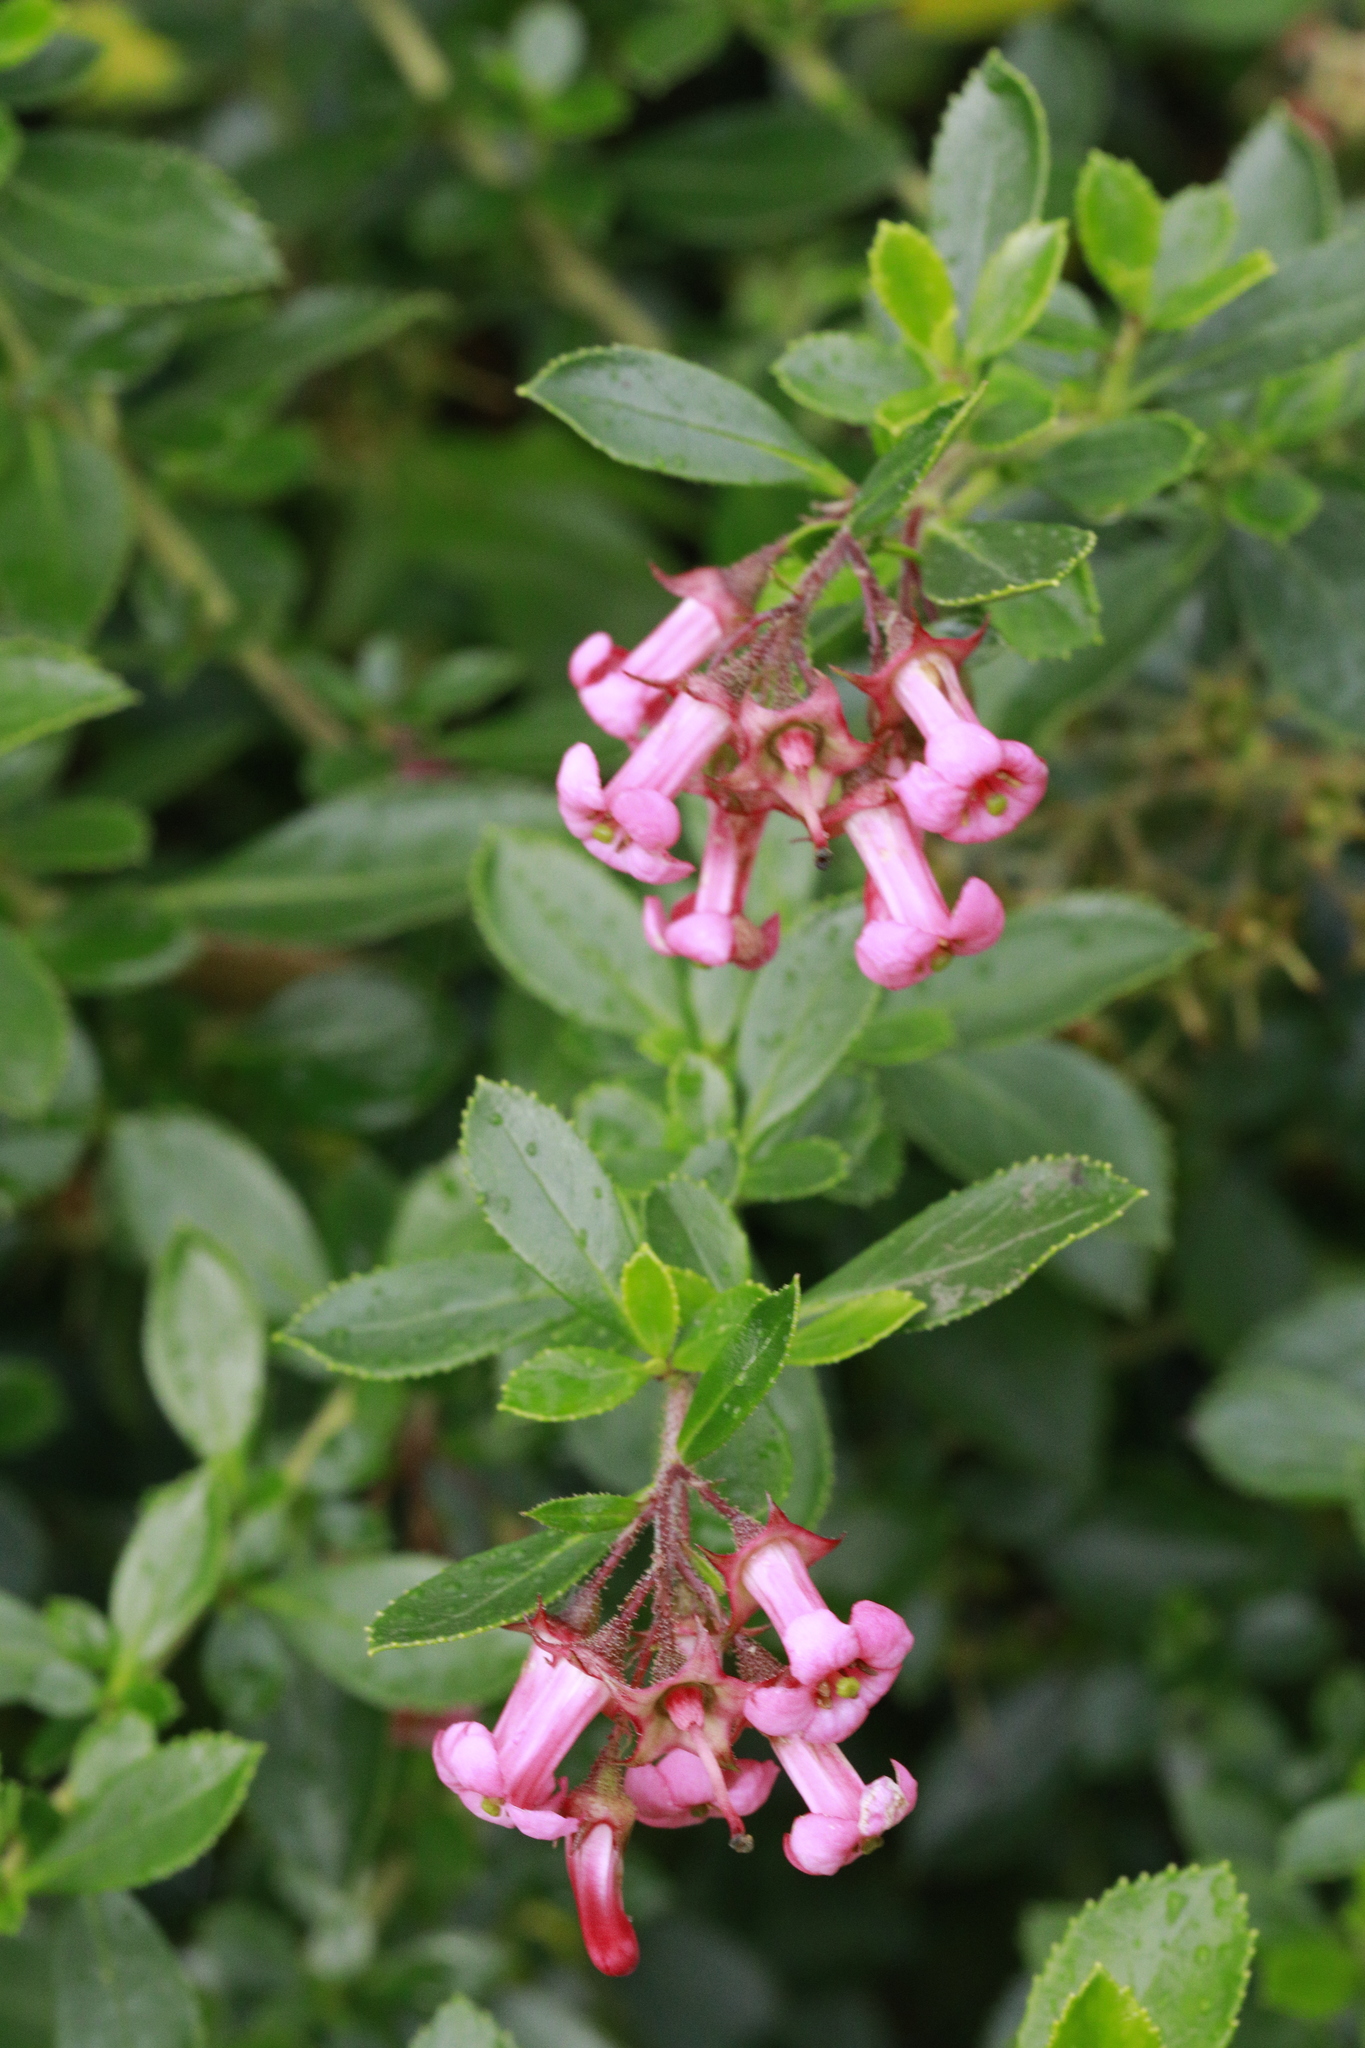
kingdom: Plantae
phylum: Tracheophyta
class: Magnoliopsida
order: Escalloniales
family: Escalloniaceae
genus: Escallonia
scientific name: Escallonia rubra
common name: Redclaws
